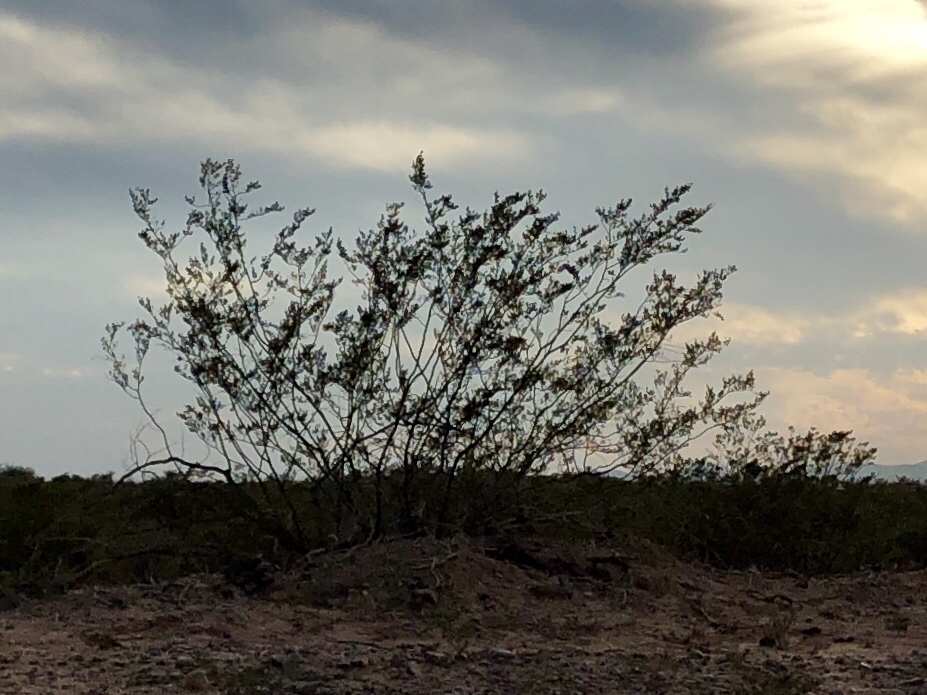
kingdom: Plantae
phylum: Tracheophyta
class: Magnoliopsida
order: Zygophyllales
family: Zygophyllaceae
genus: Larrea
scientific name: Larrea tridentata
